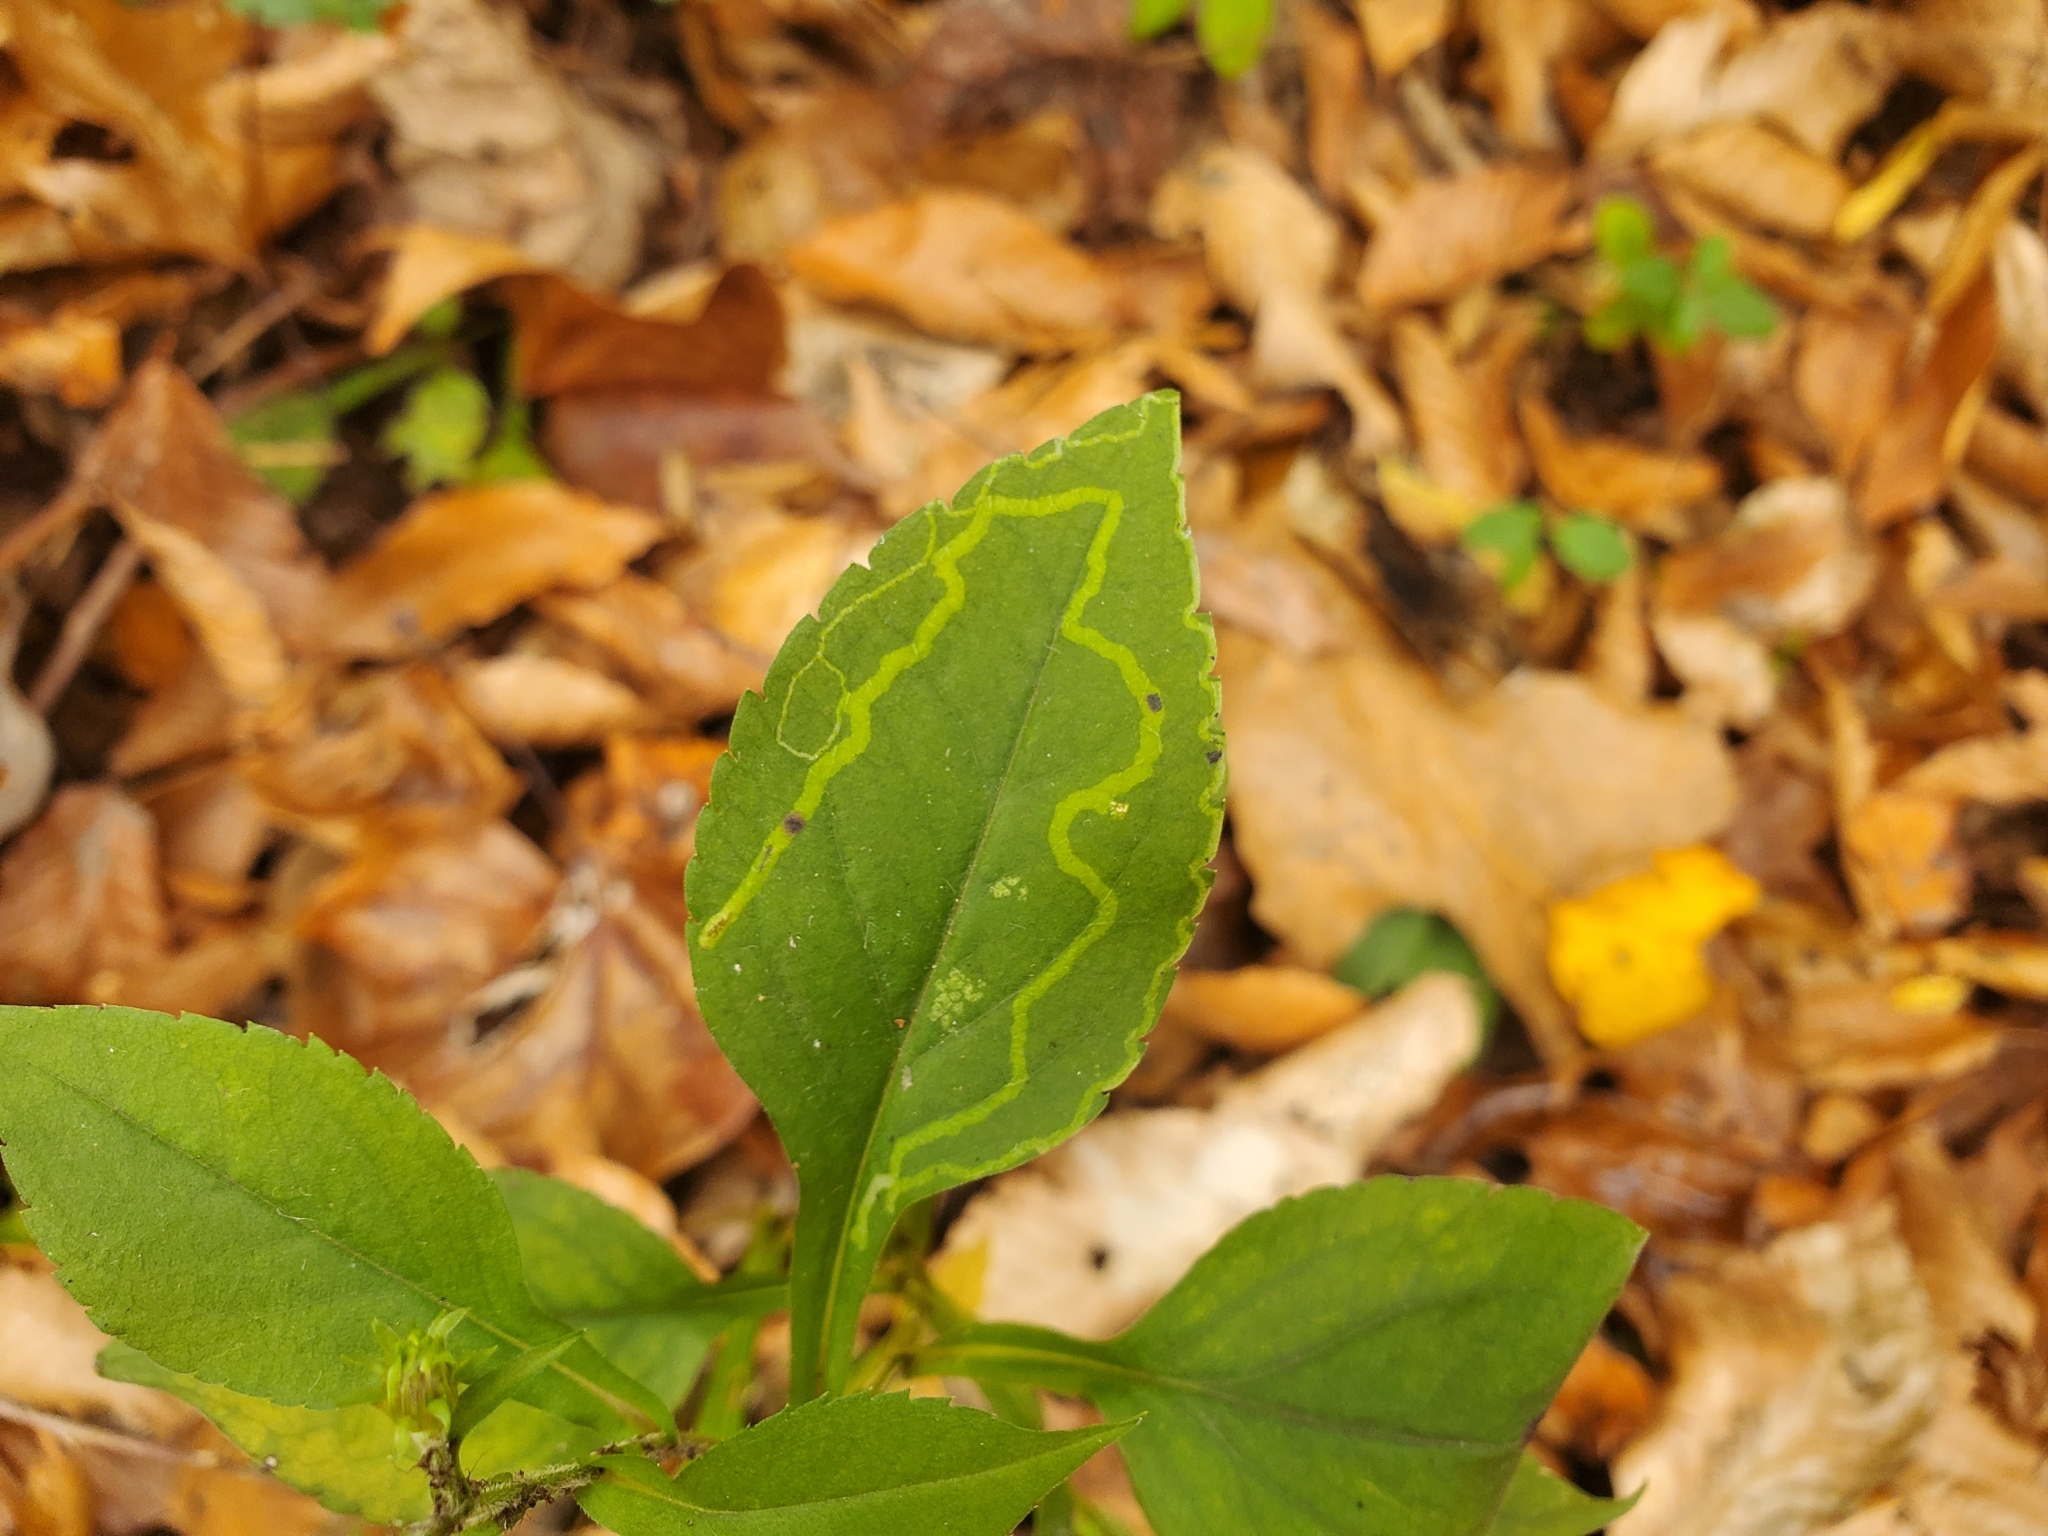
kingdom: Animalia
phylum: Arthropoda
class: Insecta
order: Diptera
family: Agromyzidae
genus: Ophiomyia
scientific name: Ophiomyia parda
